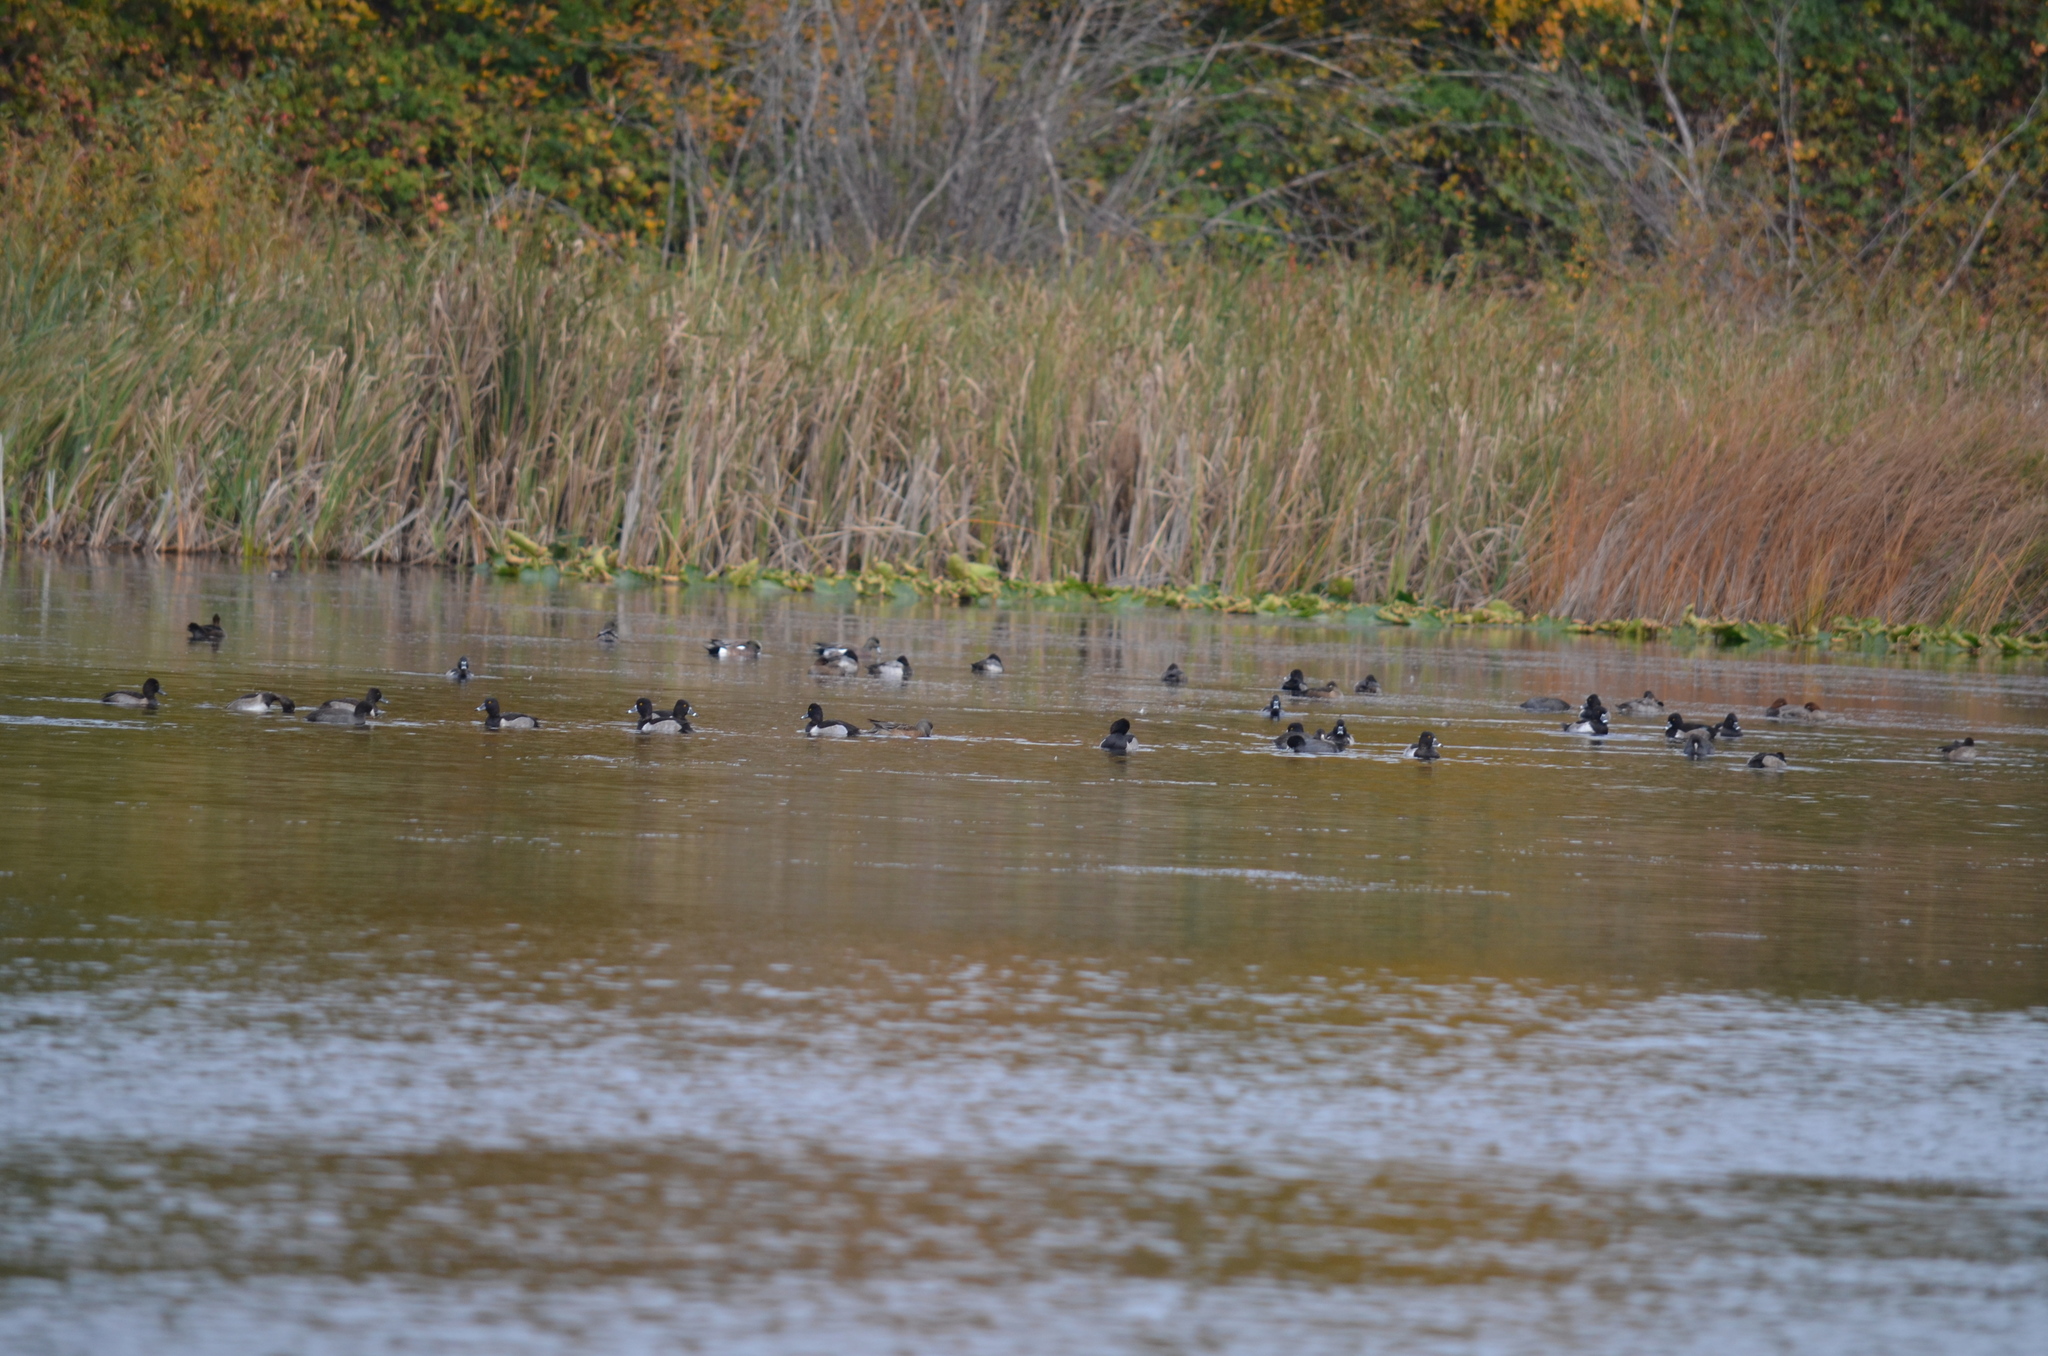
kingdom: Animalia
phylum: Chordata
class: Aves
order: Anseriformes
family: Anatidae
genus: Aythya
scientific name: Aythya collaris
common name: Ring-necked duck
